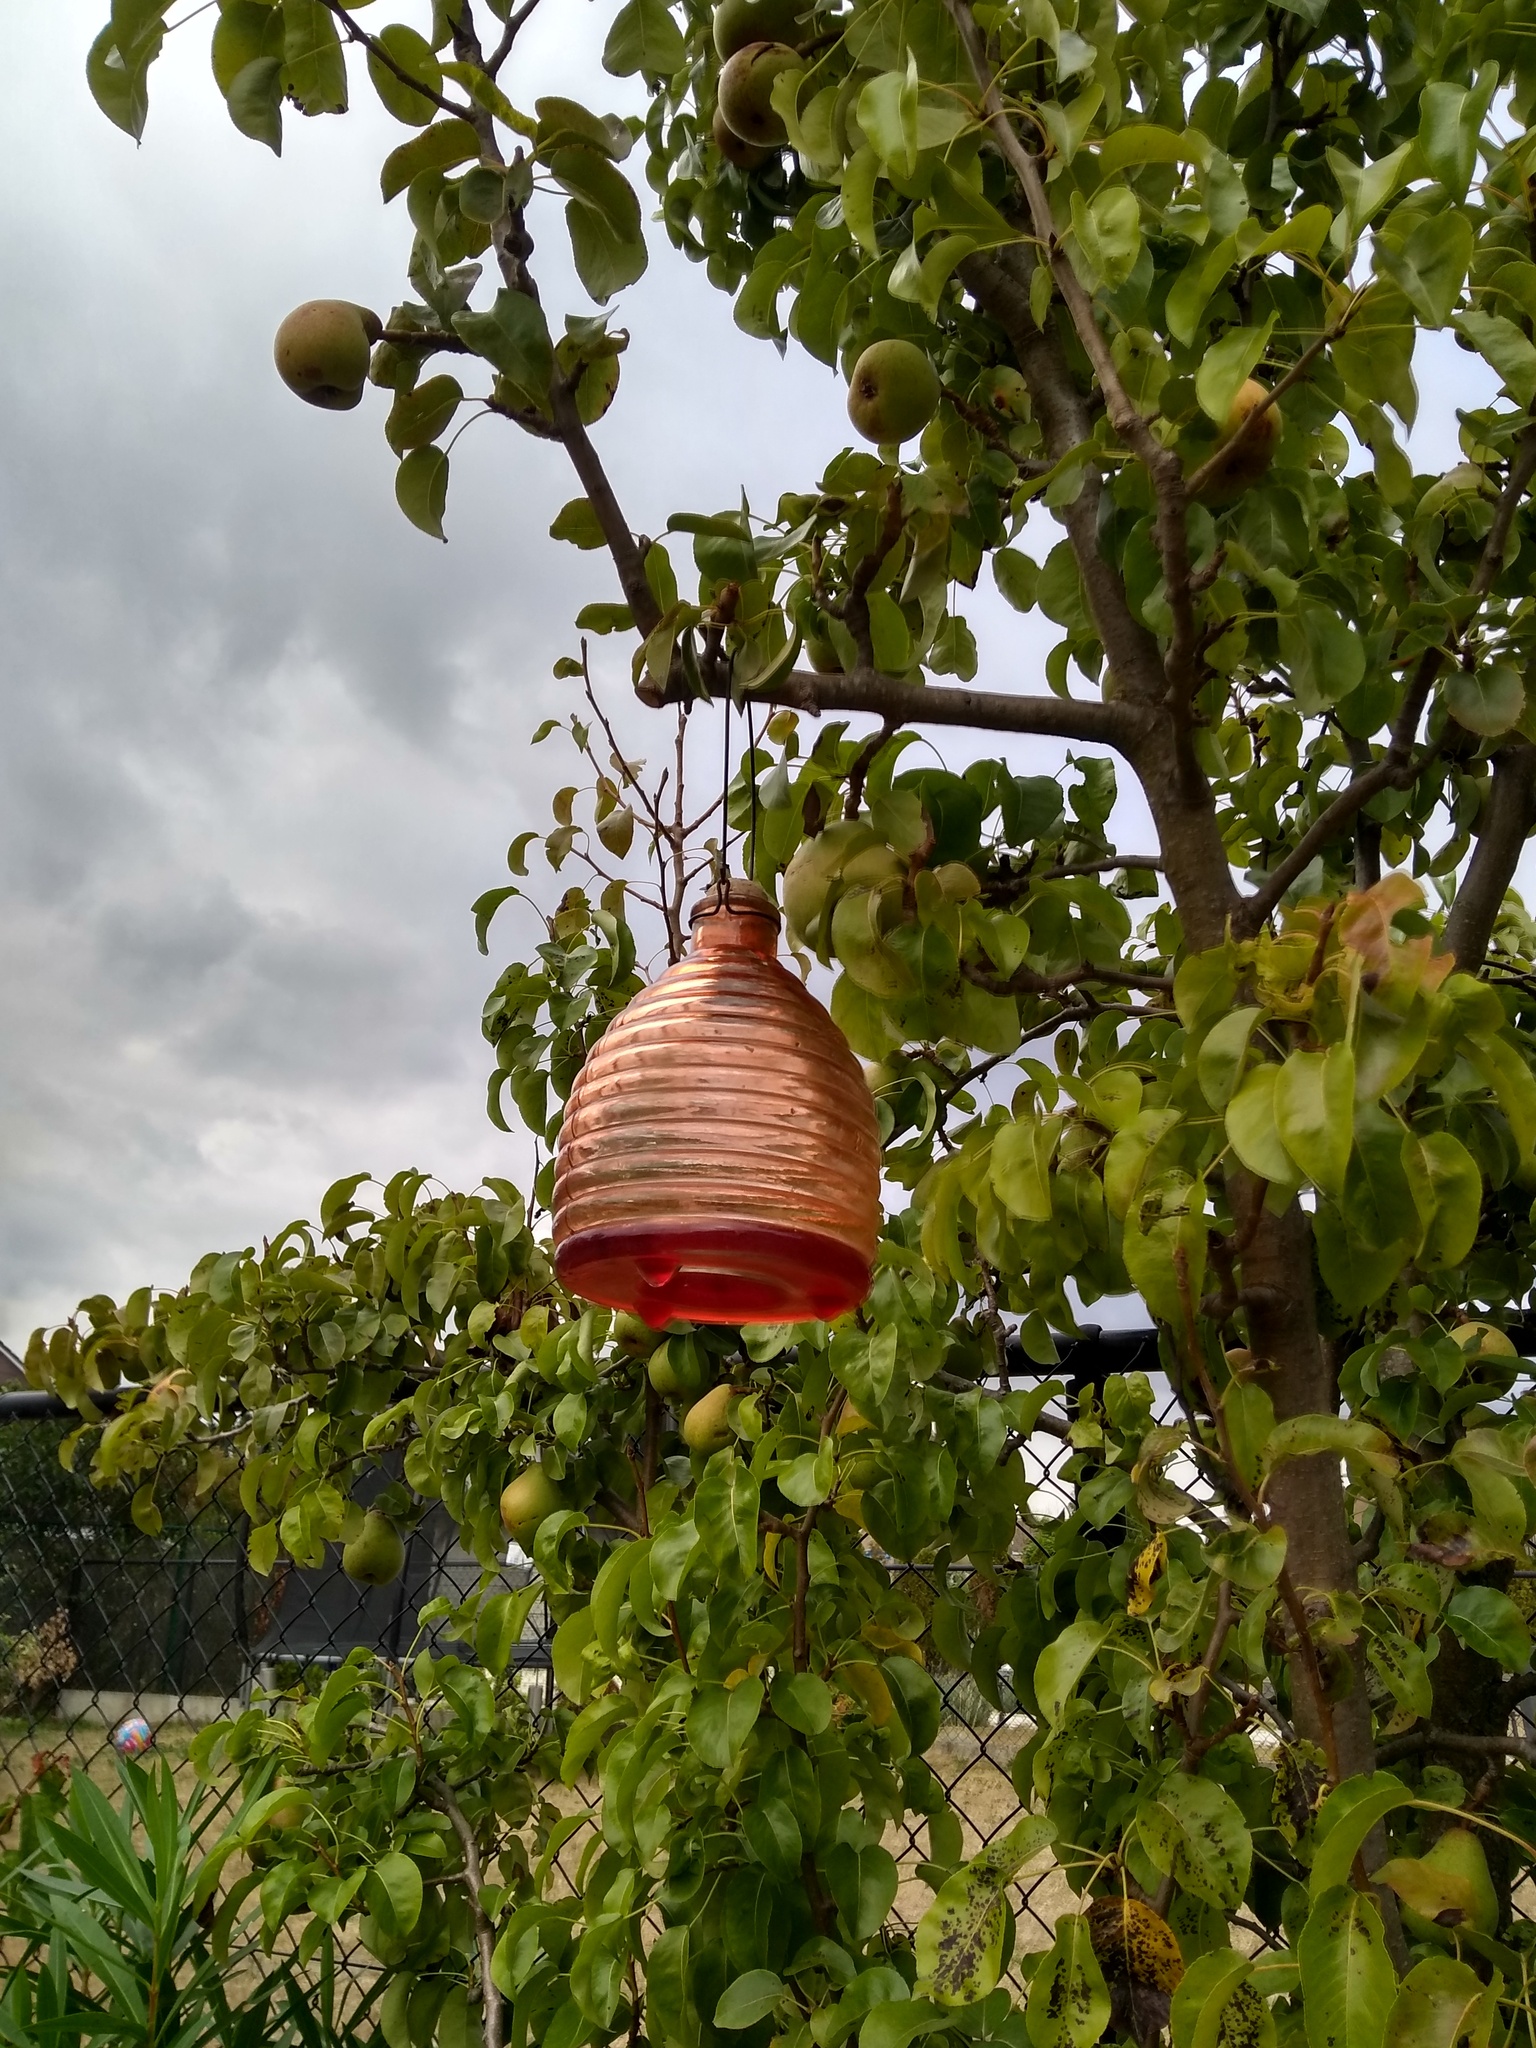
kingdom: Animalia
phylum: Arthropoda
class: Insecta
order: Hymenoptera
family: Vespidae
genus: Vespa
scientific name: Vespa crabro
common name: Hornet
